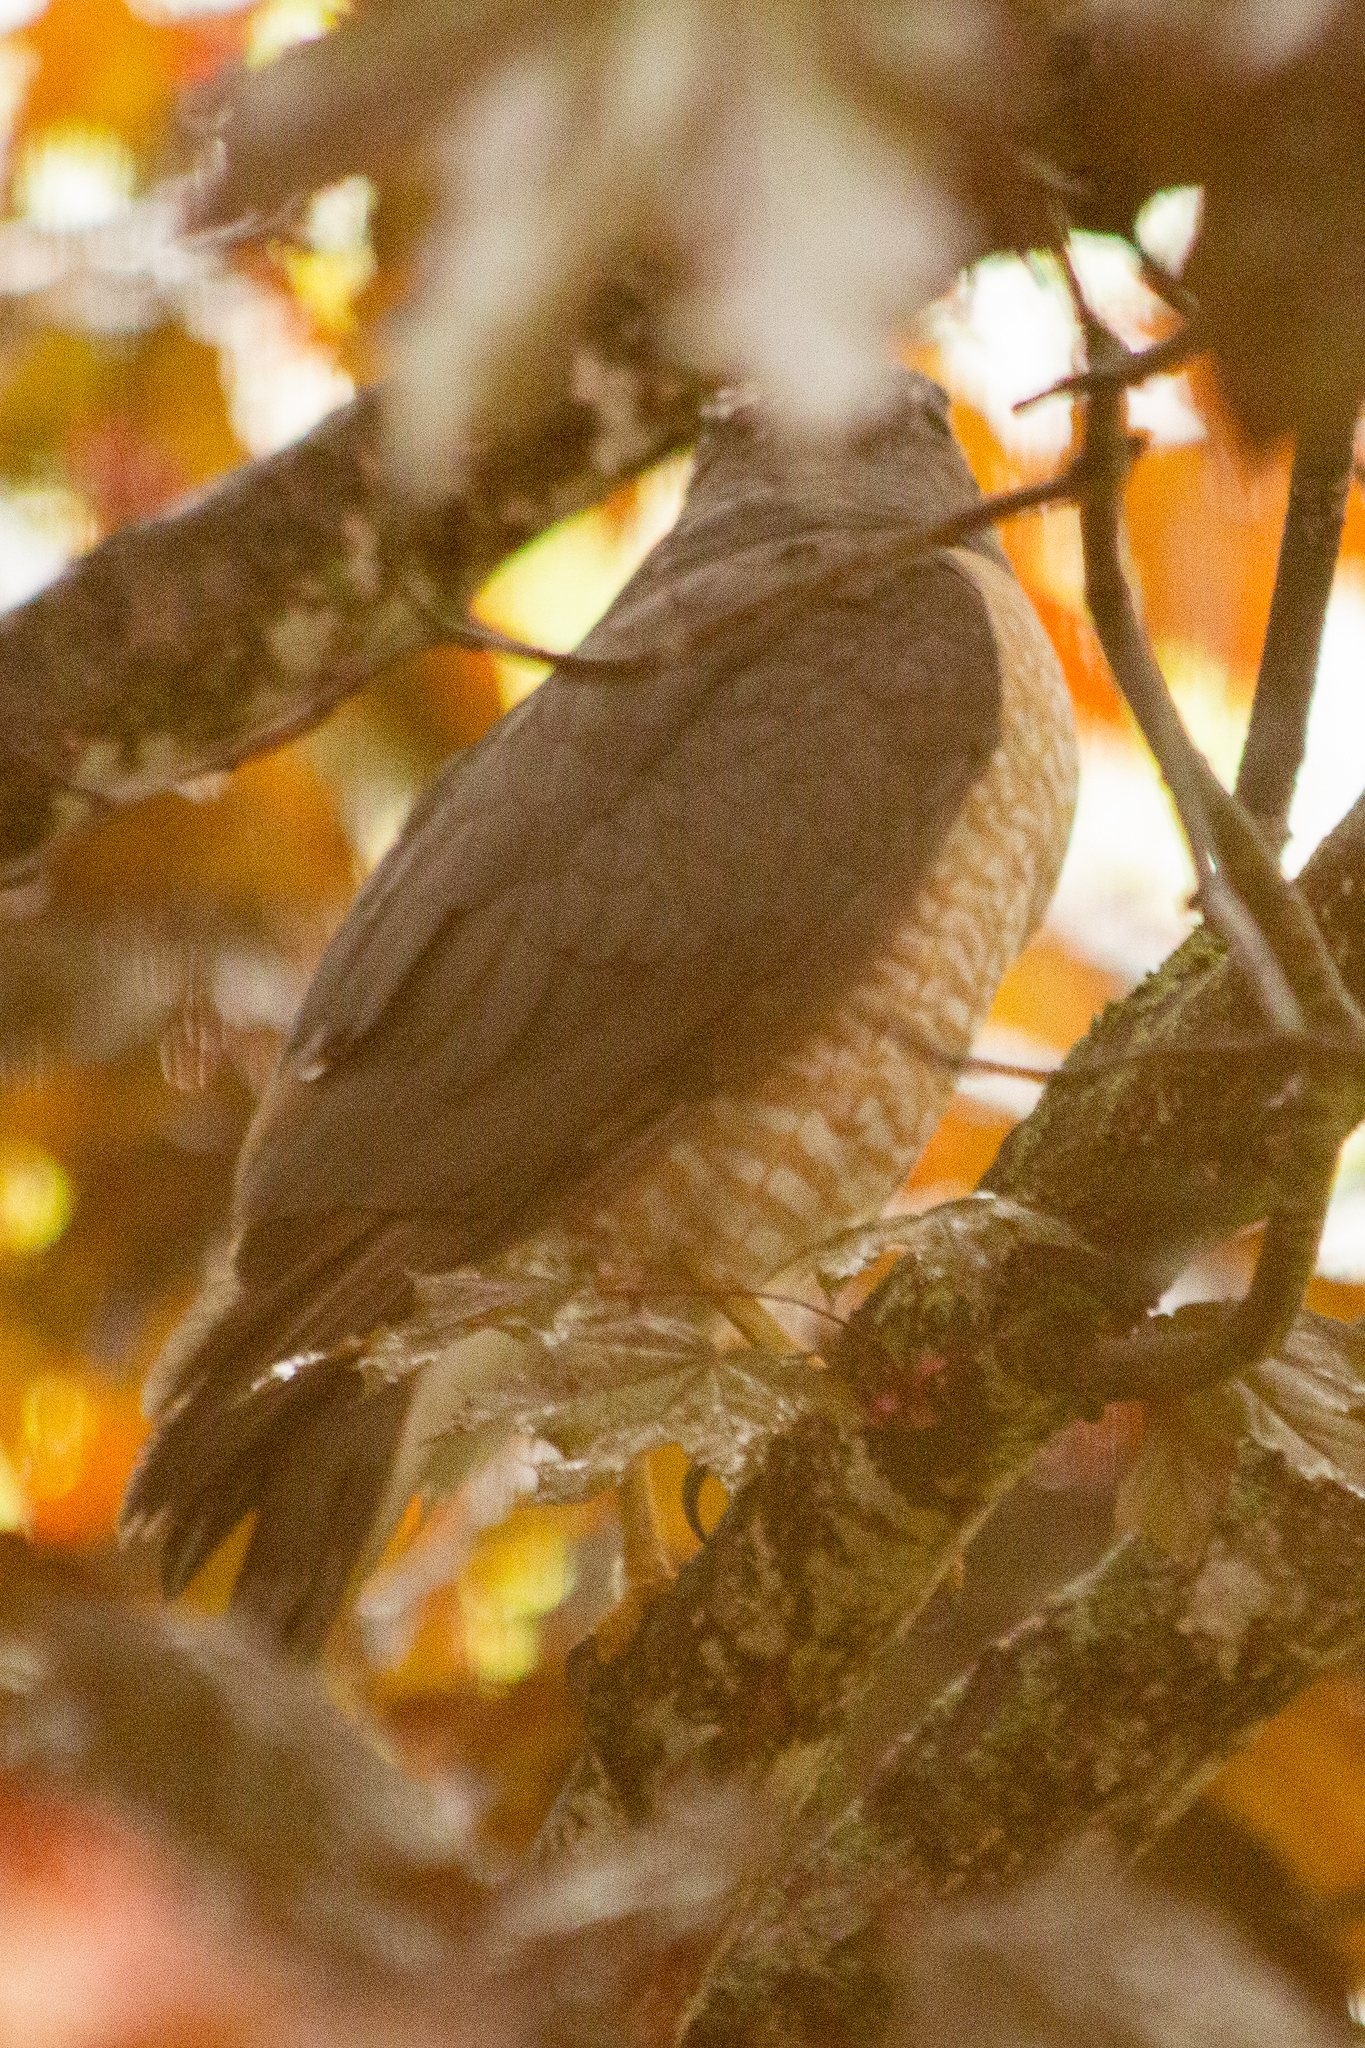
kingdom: Animalia
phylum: Chordata
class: Aves
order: Accipitriformes
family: Accipitridae
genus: Accipiter
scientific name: Accipiter cooperii
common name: Cooper's hawk
